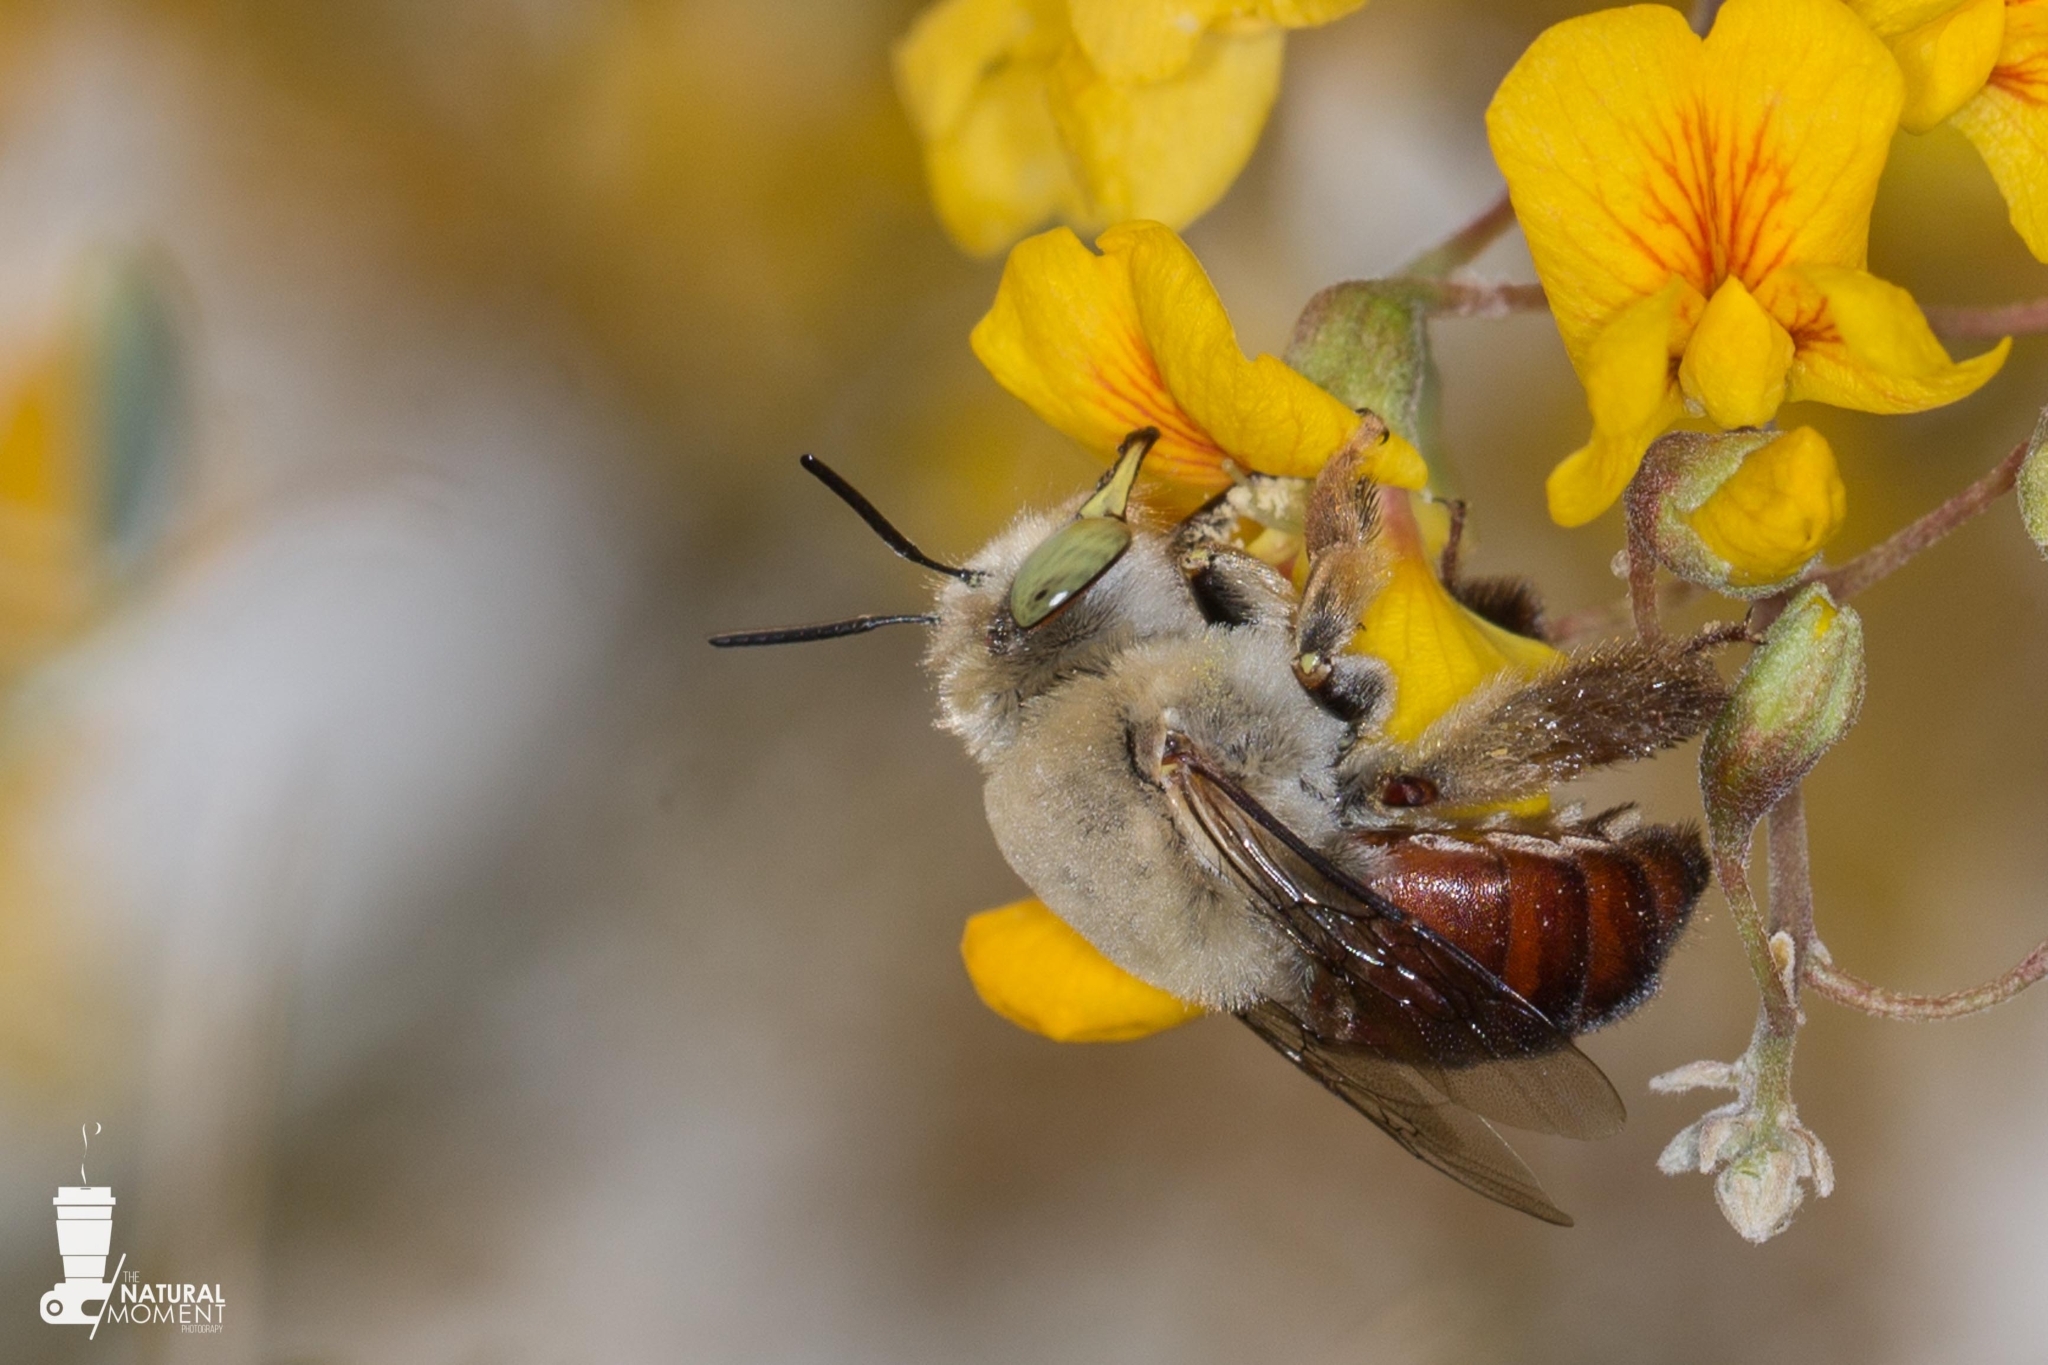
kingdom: Animalia
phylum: Arthropoda
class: Insecta
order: Hymenoptera
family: Apidae
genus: Centris
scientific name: Centris buchholzi
